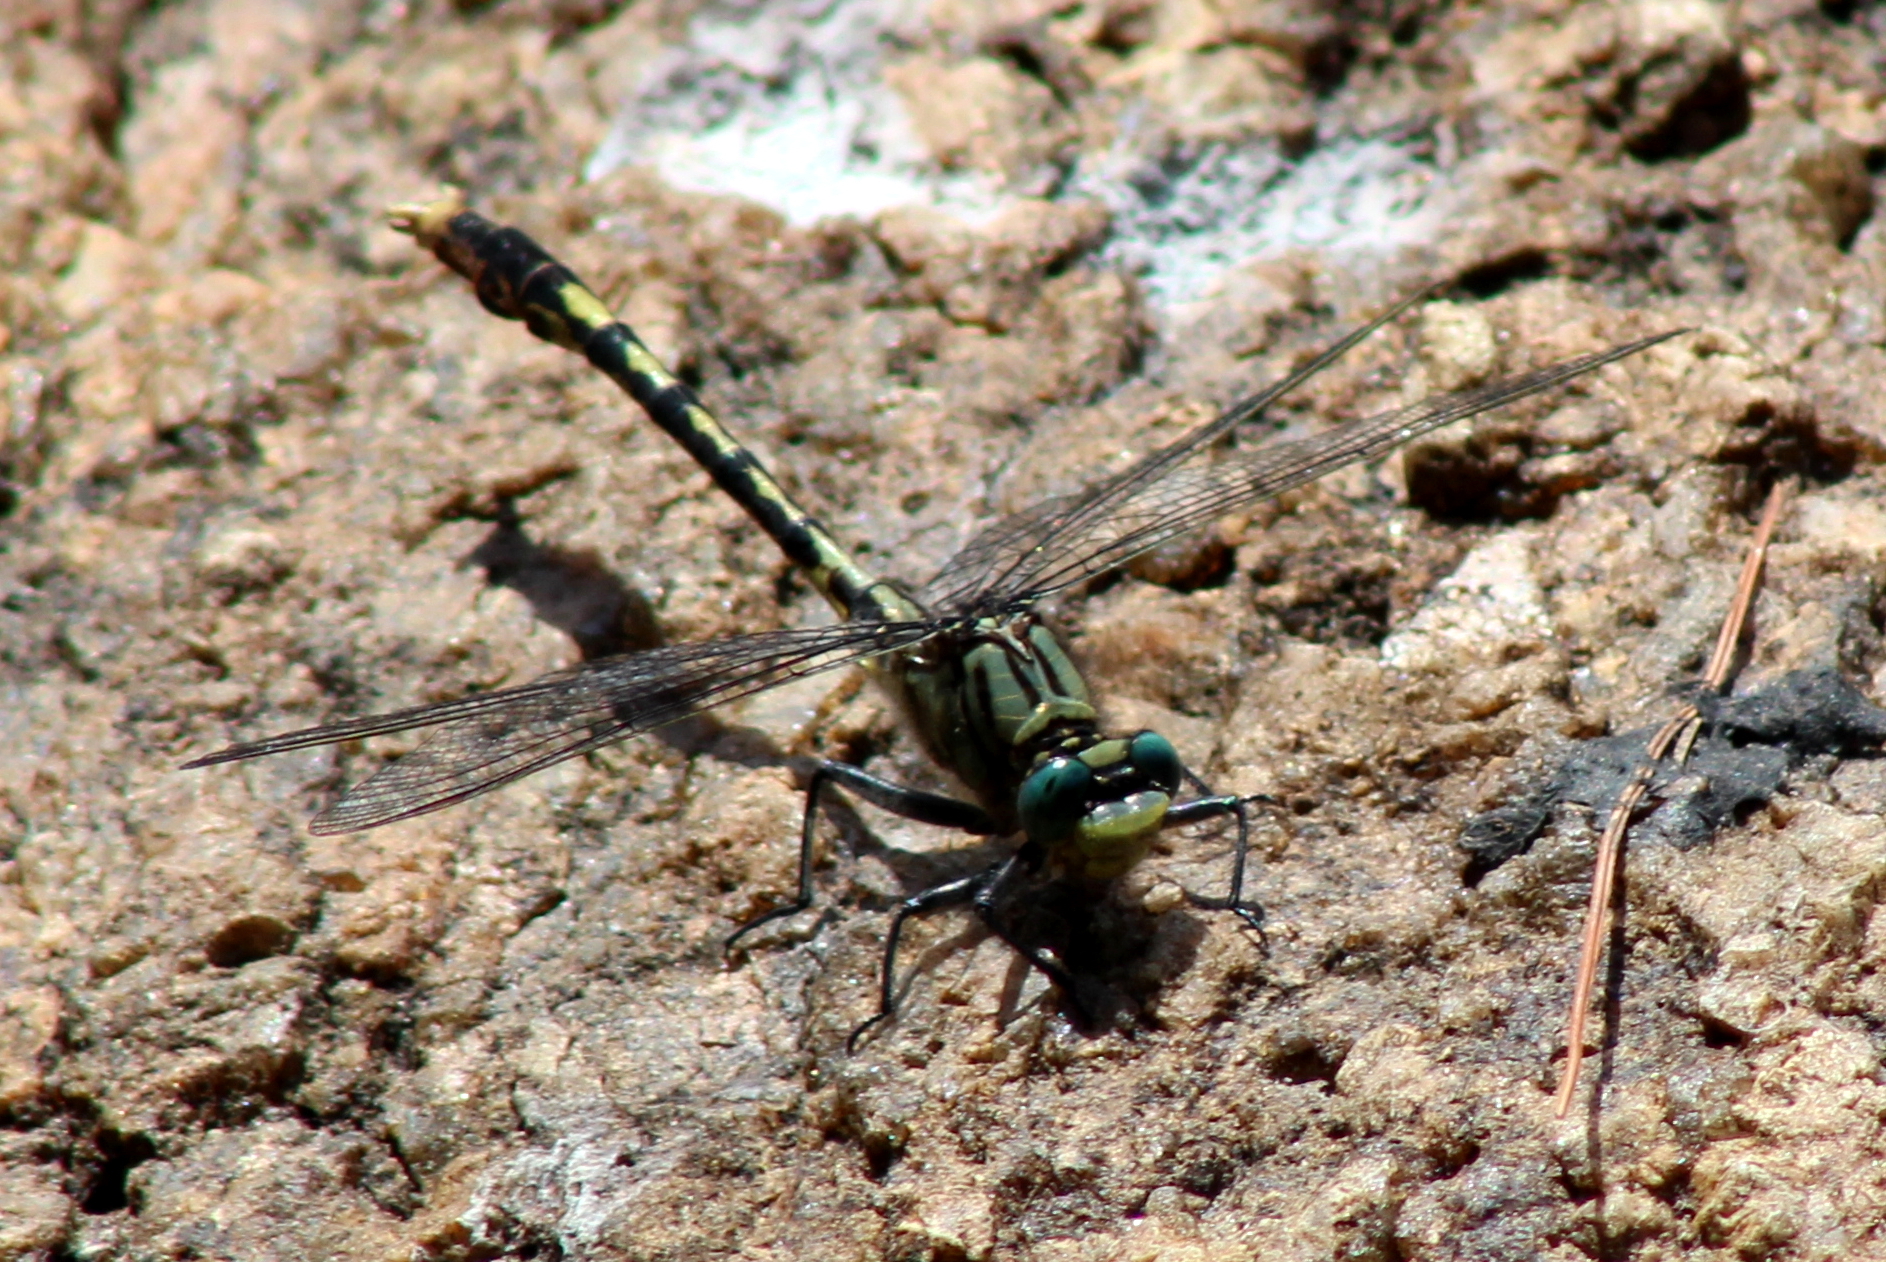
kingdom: Animalia
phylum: Arthropoda
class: Insecta
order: Odonata
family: Gomphidae
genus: Arigomphus
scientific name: Arigomphus villosipes
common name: Unicorn clubtail
